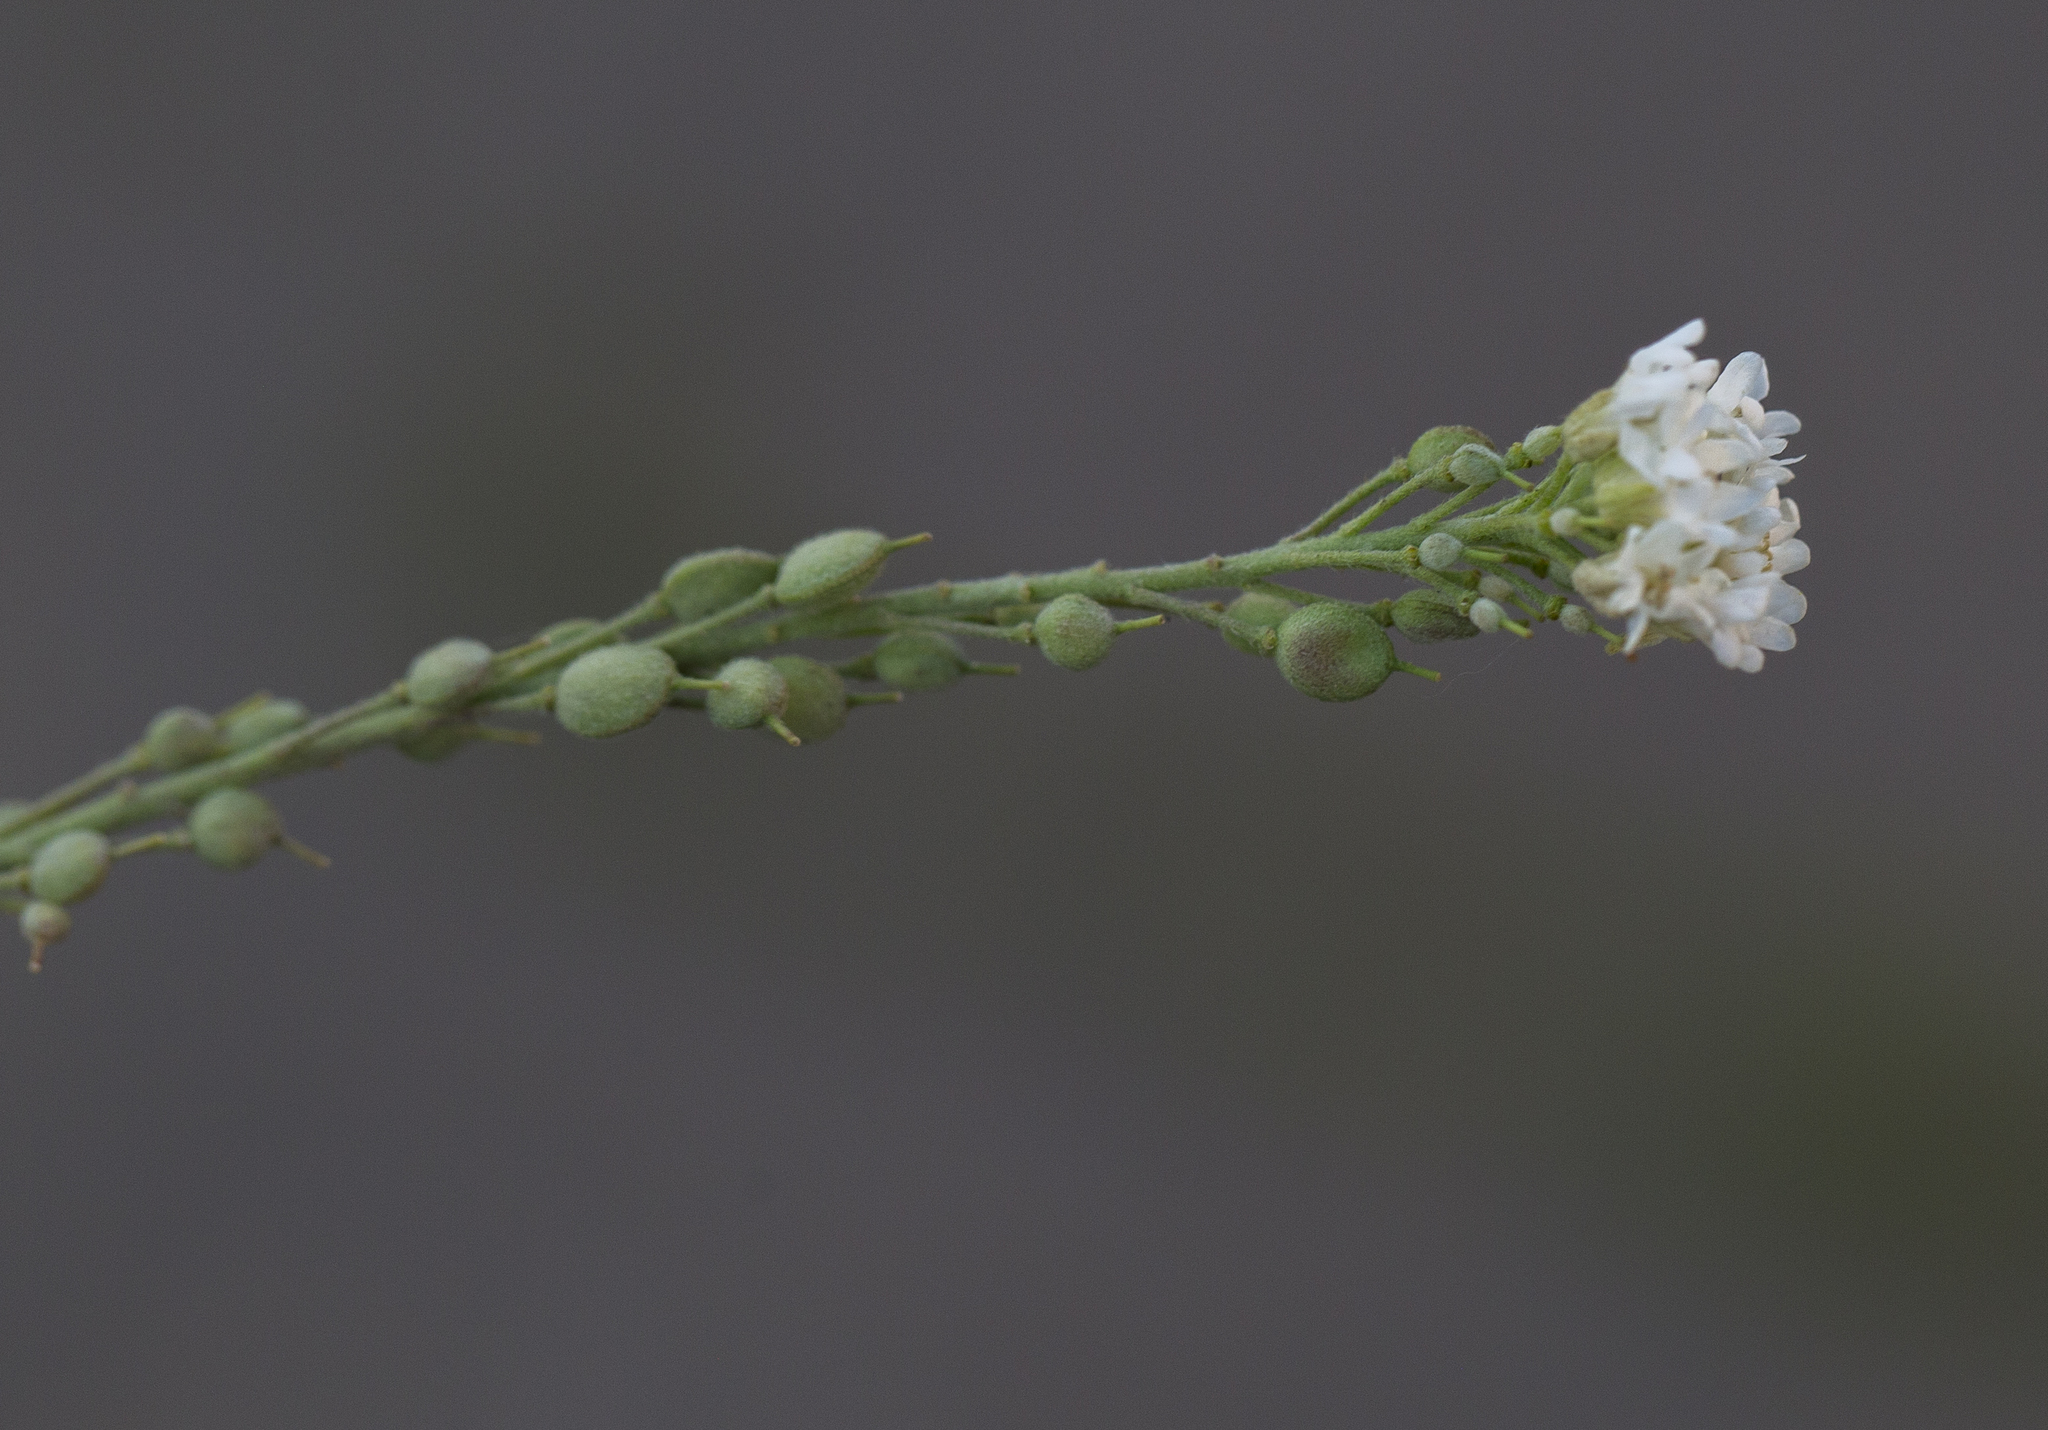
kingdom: Plantae
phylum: Tracheophyta
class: Magnoliopsida
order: Brassicales
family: Brassicaceae
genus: Berteroa
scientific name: Berteroa incana
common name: Hoary alison
